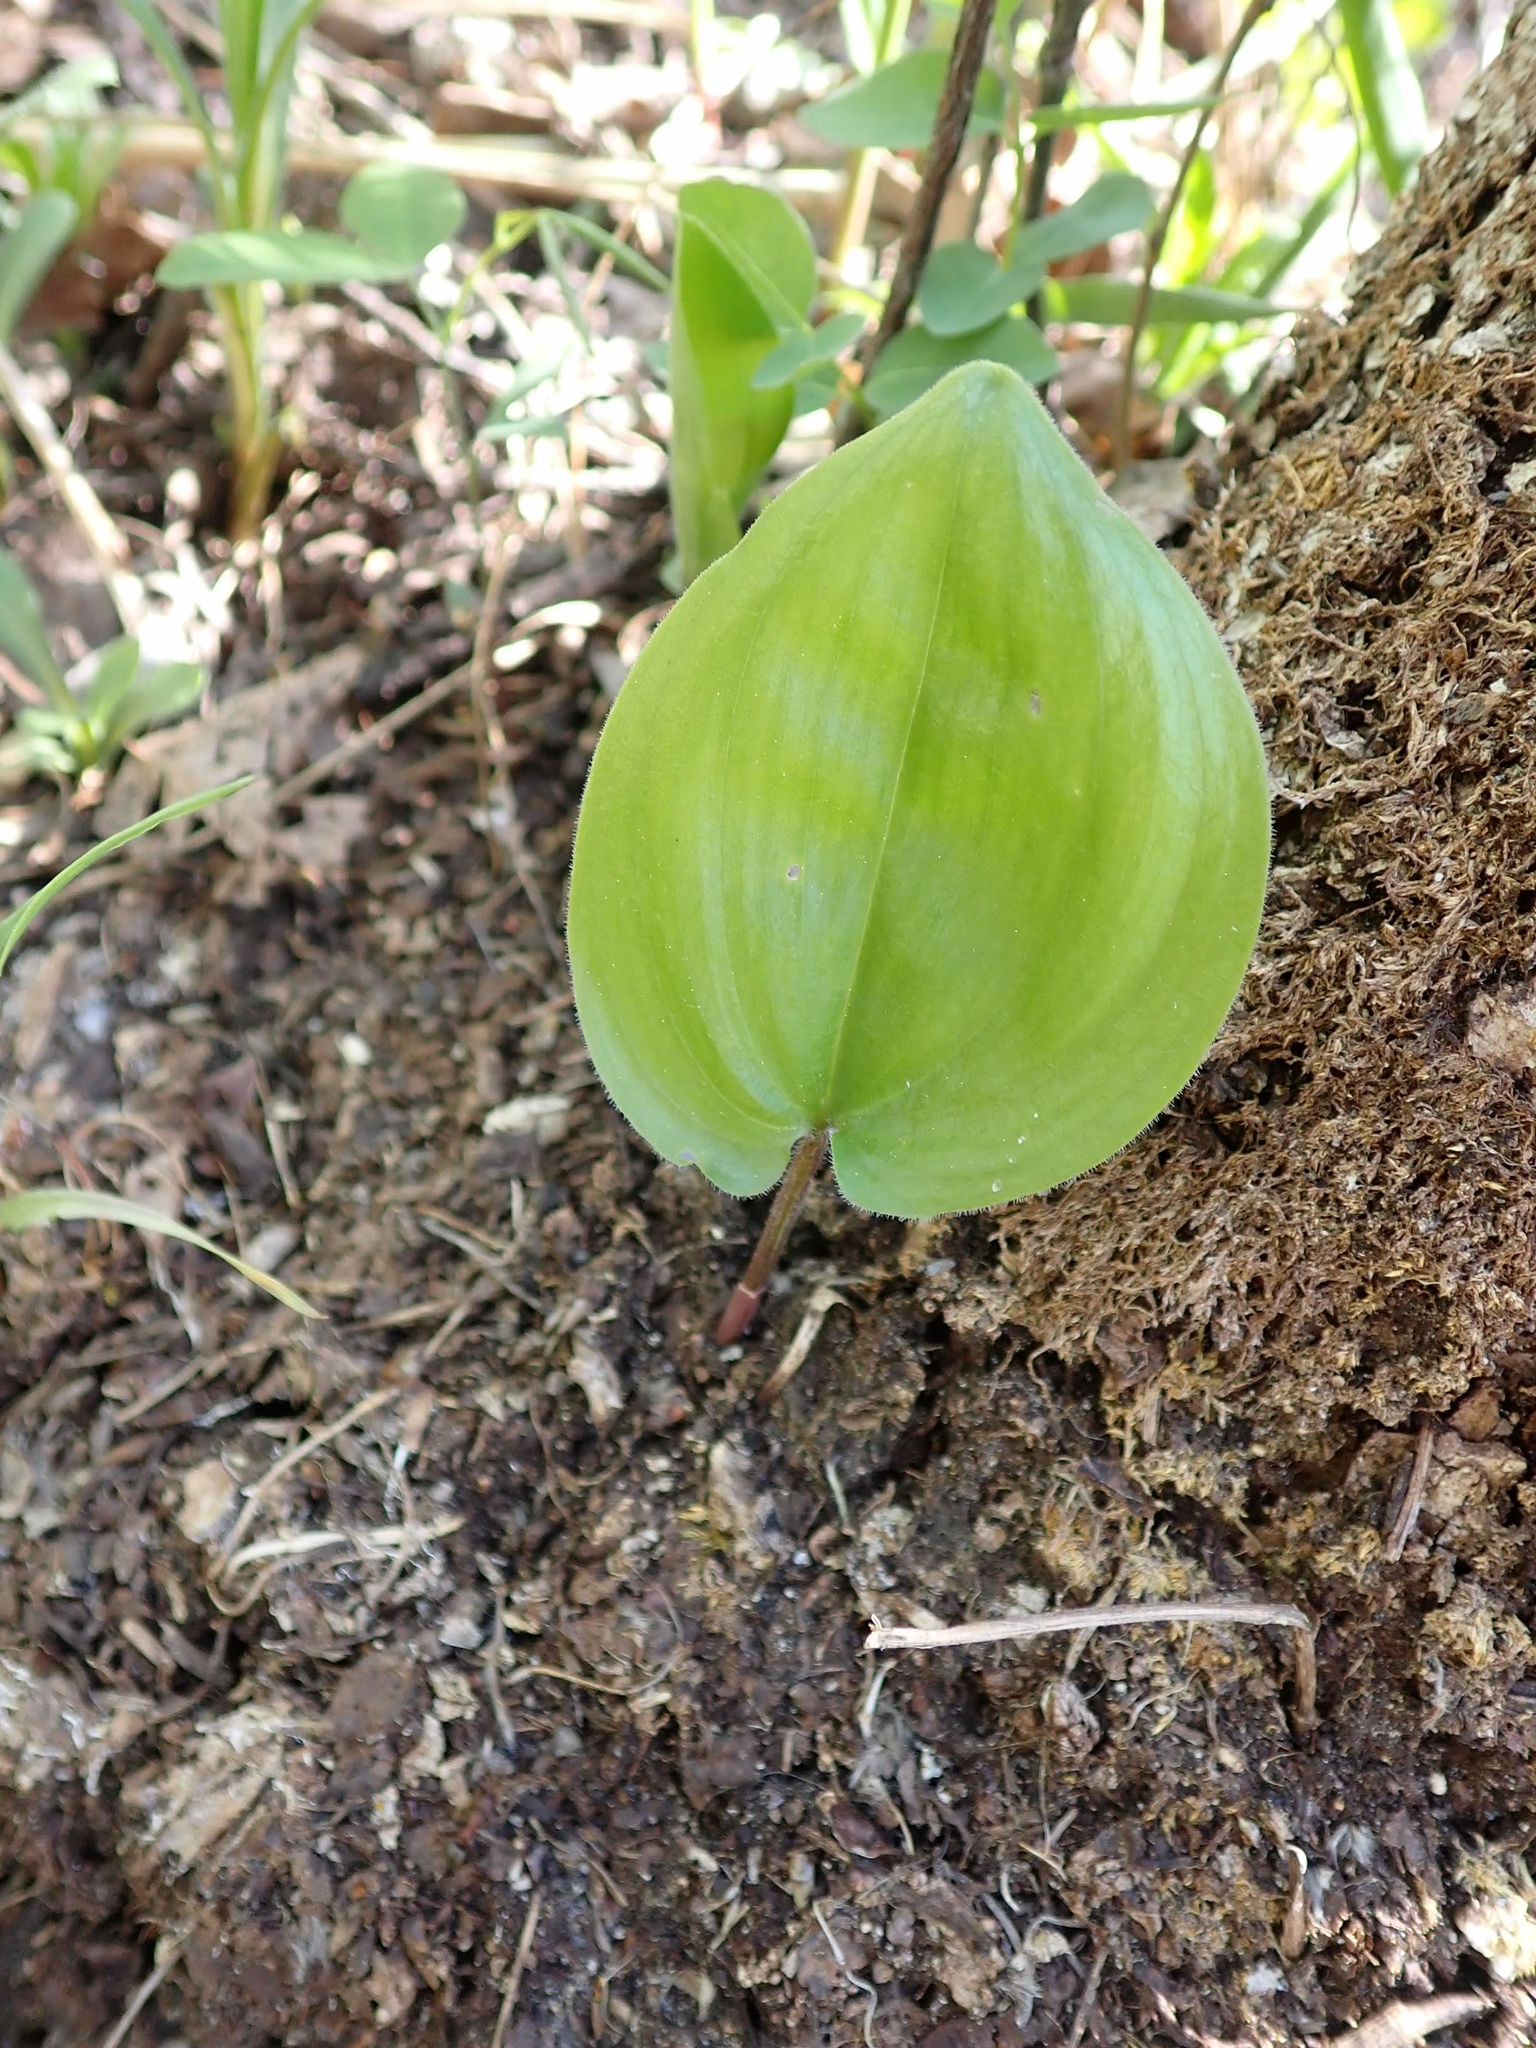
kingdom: Plantae
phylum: Tracheophyta
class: Liliopsida
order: Asparagales
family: Asparagaceae
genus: Maianthemum
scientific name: Maianthemum canadense
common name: False lily-of-the-valley
